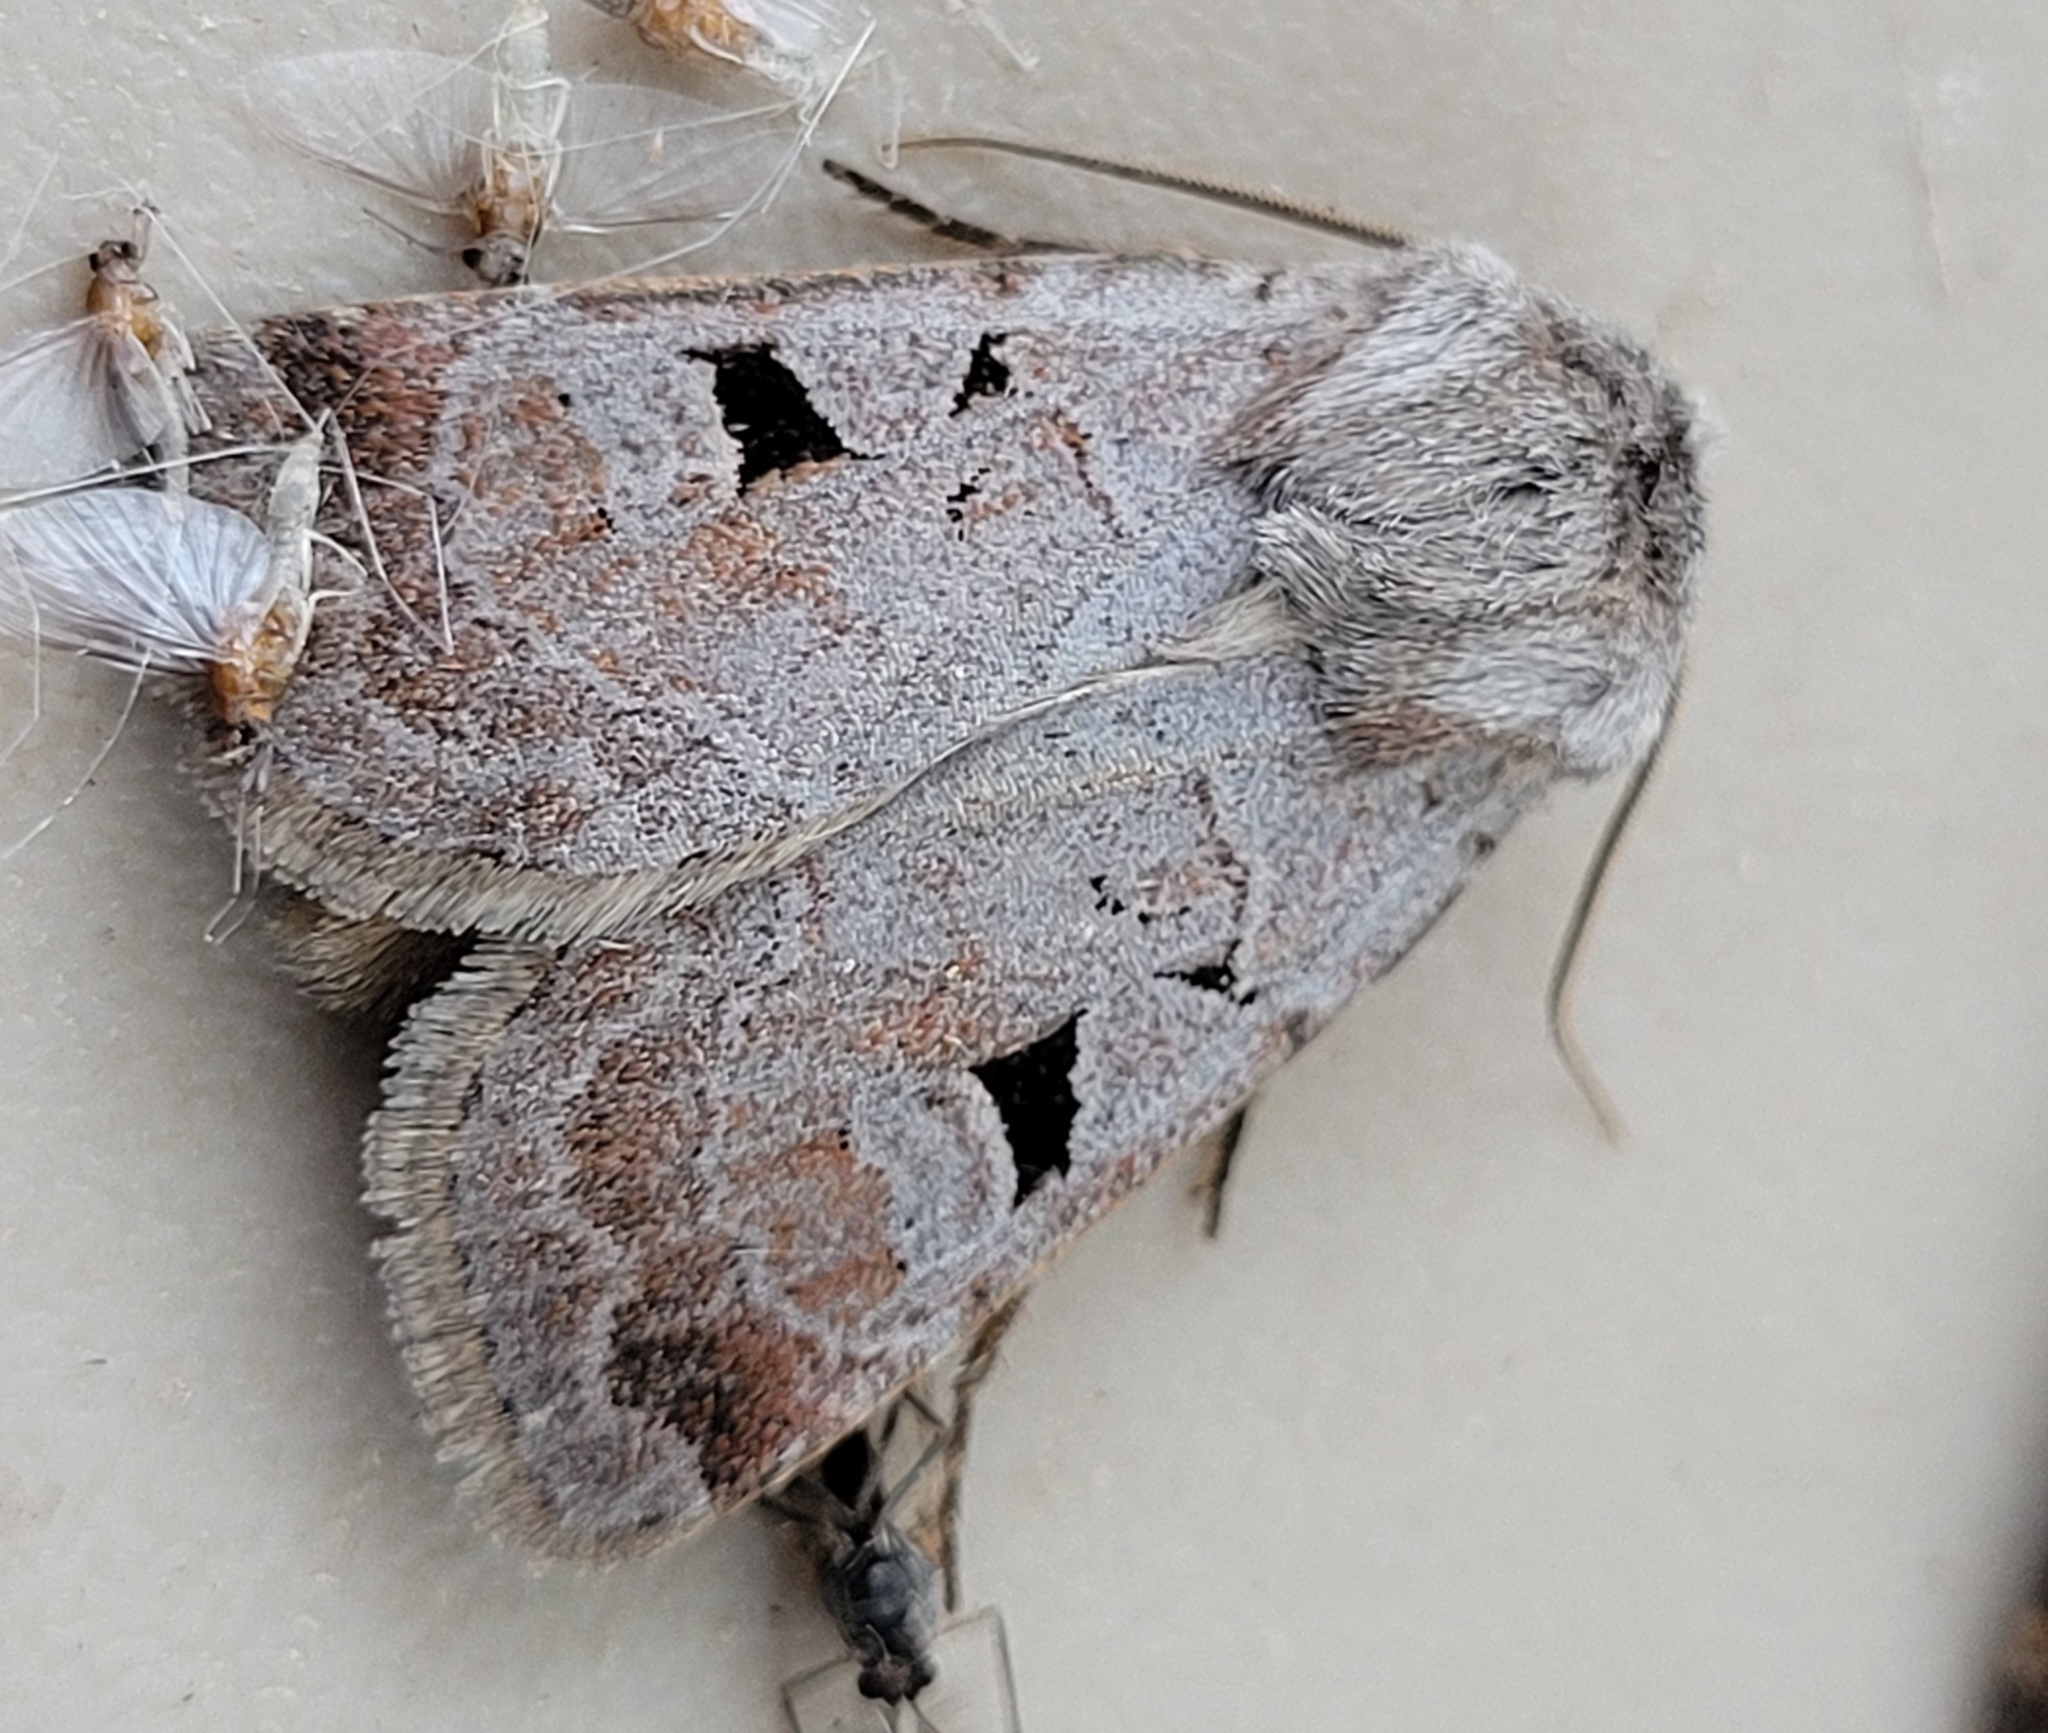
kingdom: Animalia
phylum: Arthropoda
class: Insecta
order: Lepidoptera
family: Noctuidae
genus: Feltia
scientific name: Feltia mollis
